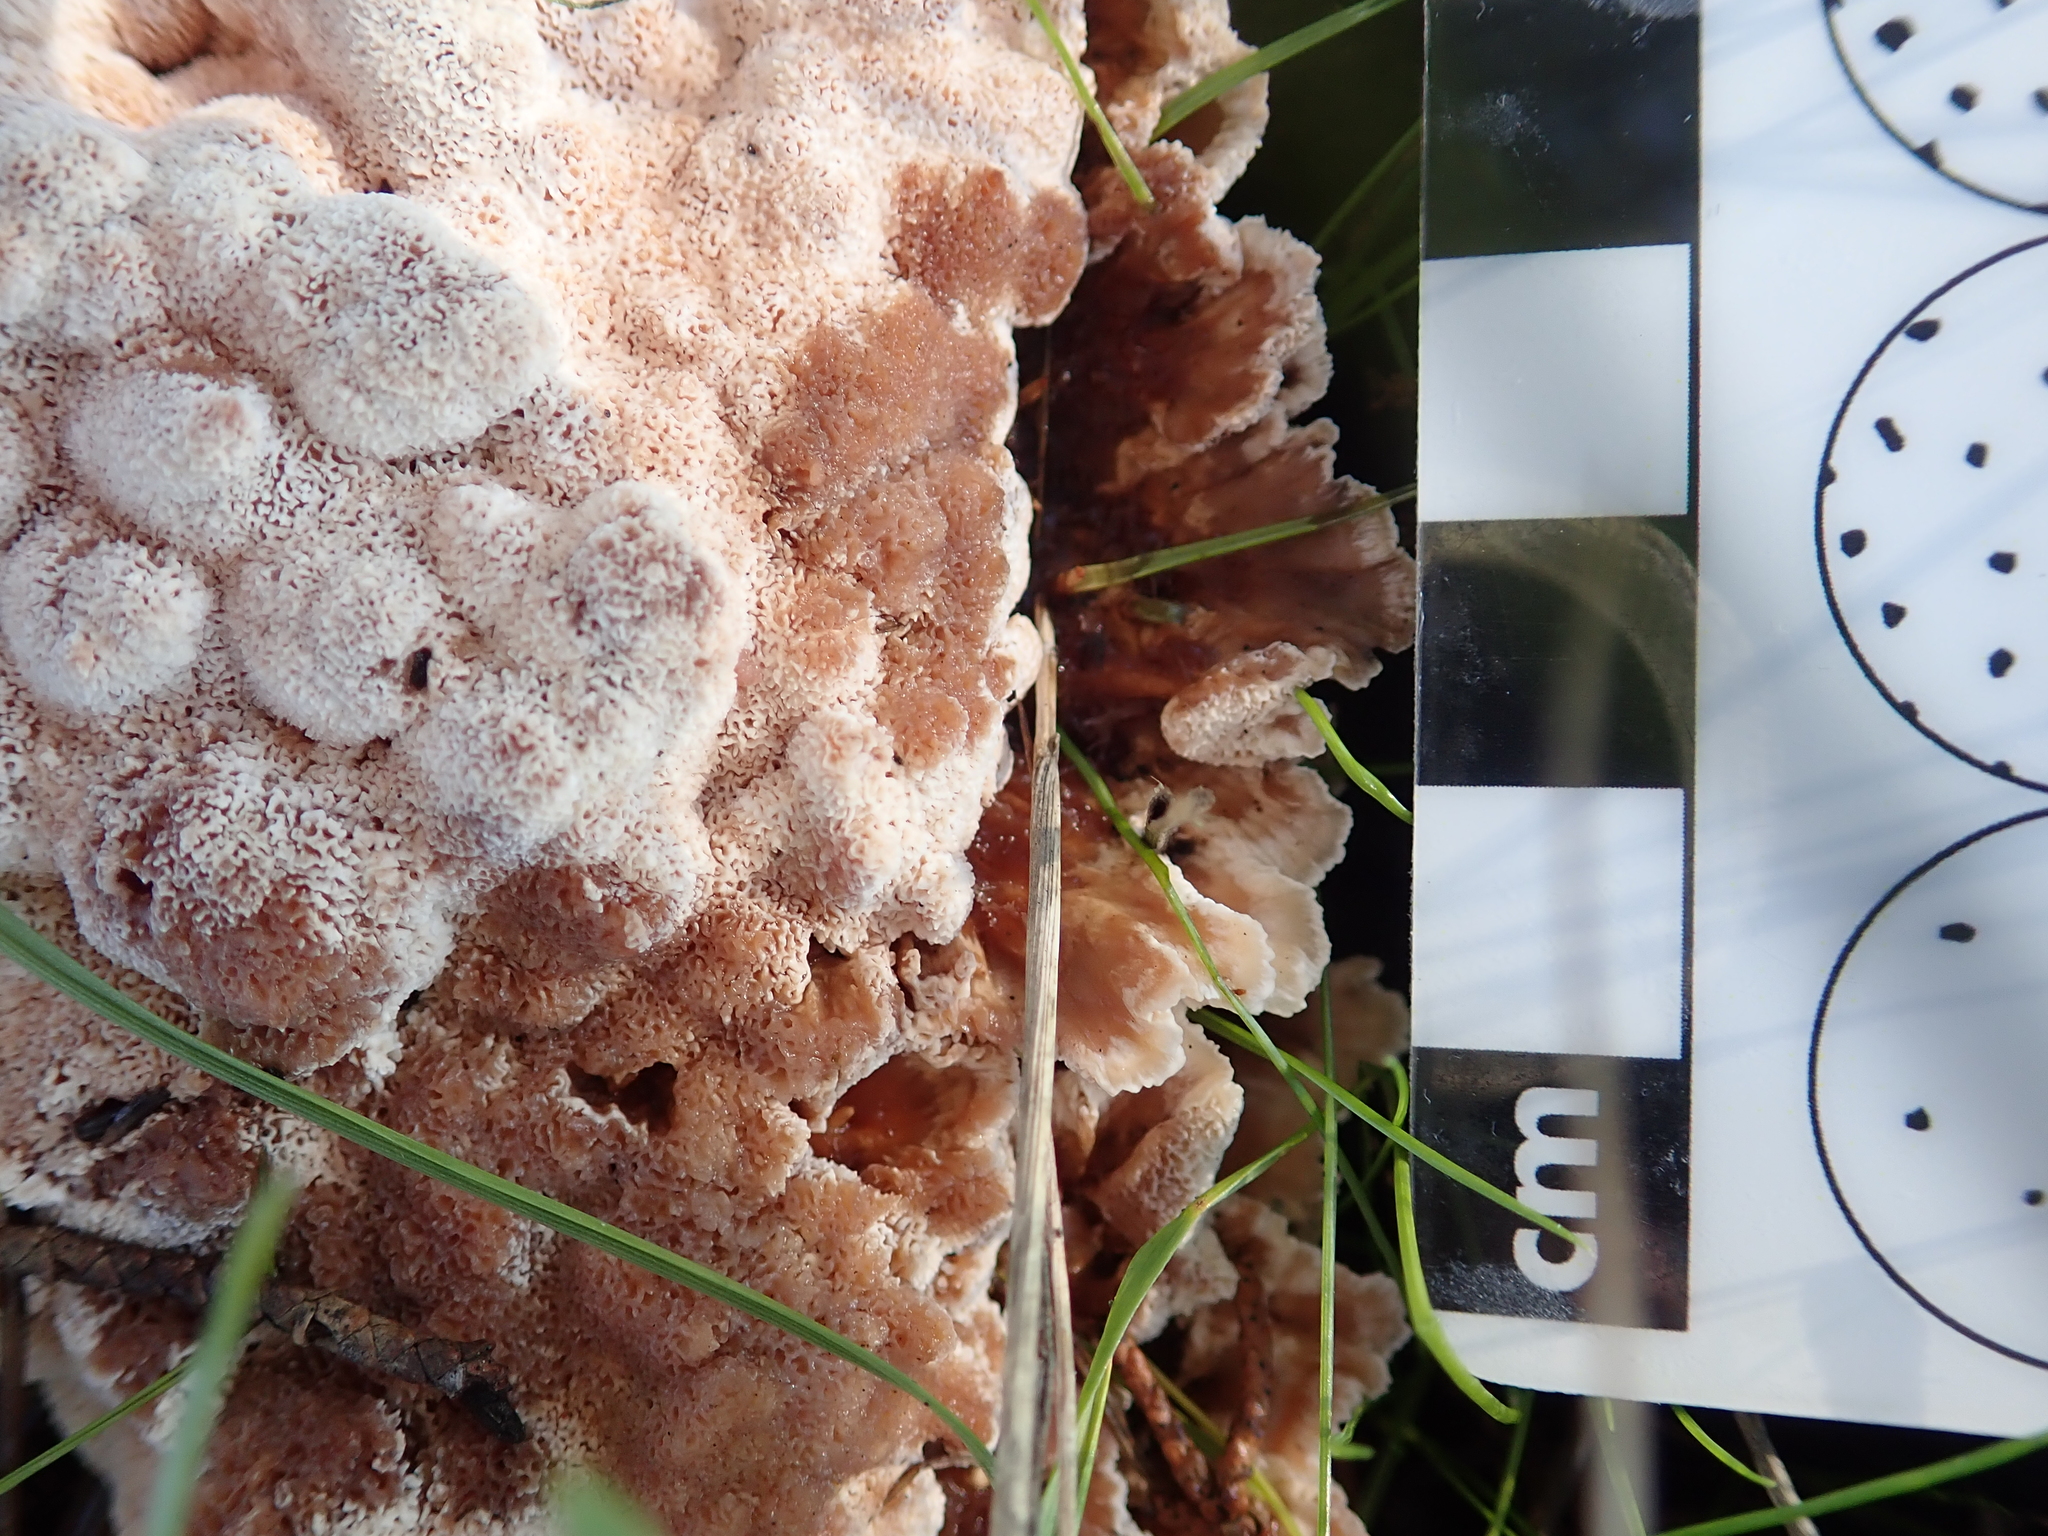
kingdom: Fungi
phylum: Basidiomycota
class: Agaricomycetes
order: Polyporales
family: Podoscyphaceae
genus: Abortiporus
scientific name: Abortiporus biennis
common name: Blushing rosette
